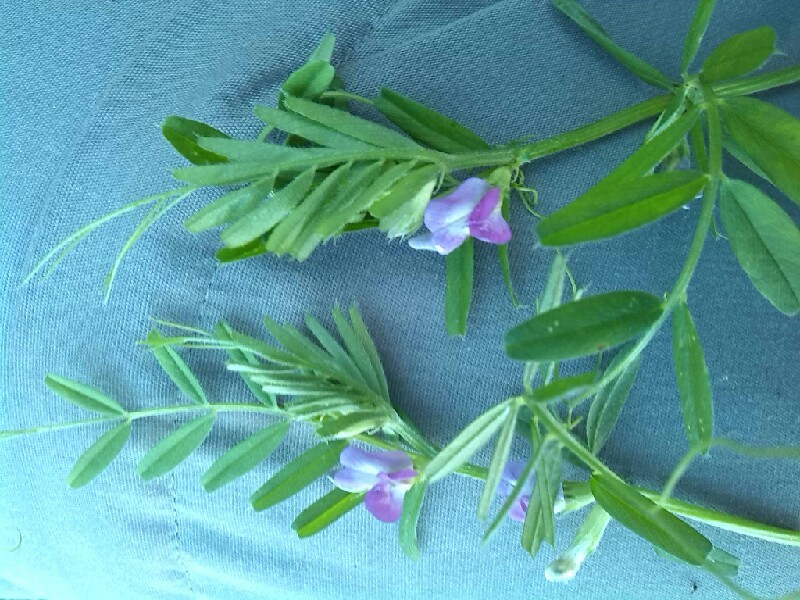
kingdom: Plantae
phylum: Tracheophyta
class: Magnoliopsida
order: Fabales
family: Fabaceae
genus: Vicia
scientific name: Vicia sativa
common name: Garden vetch
